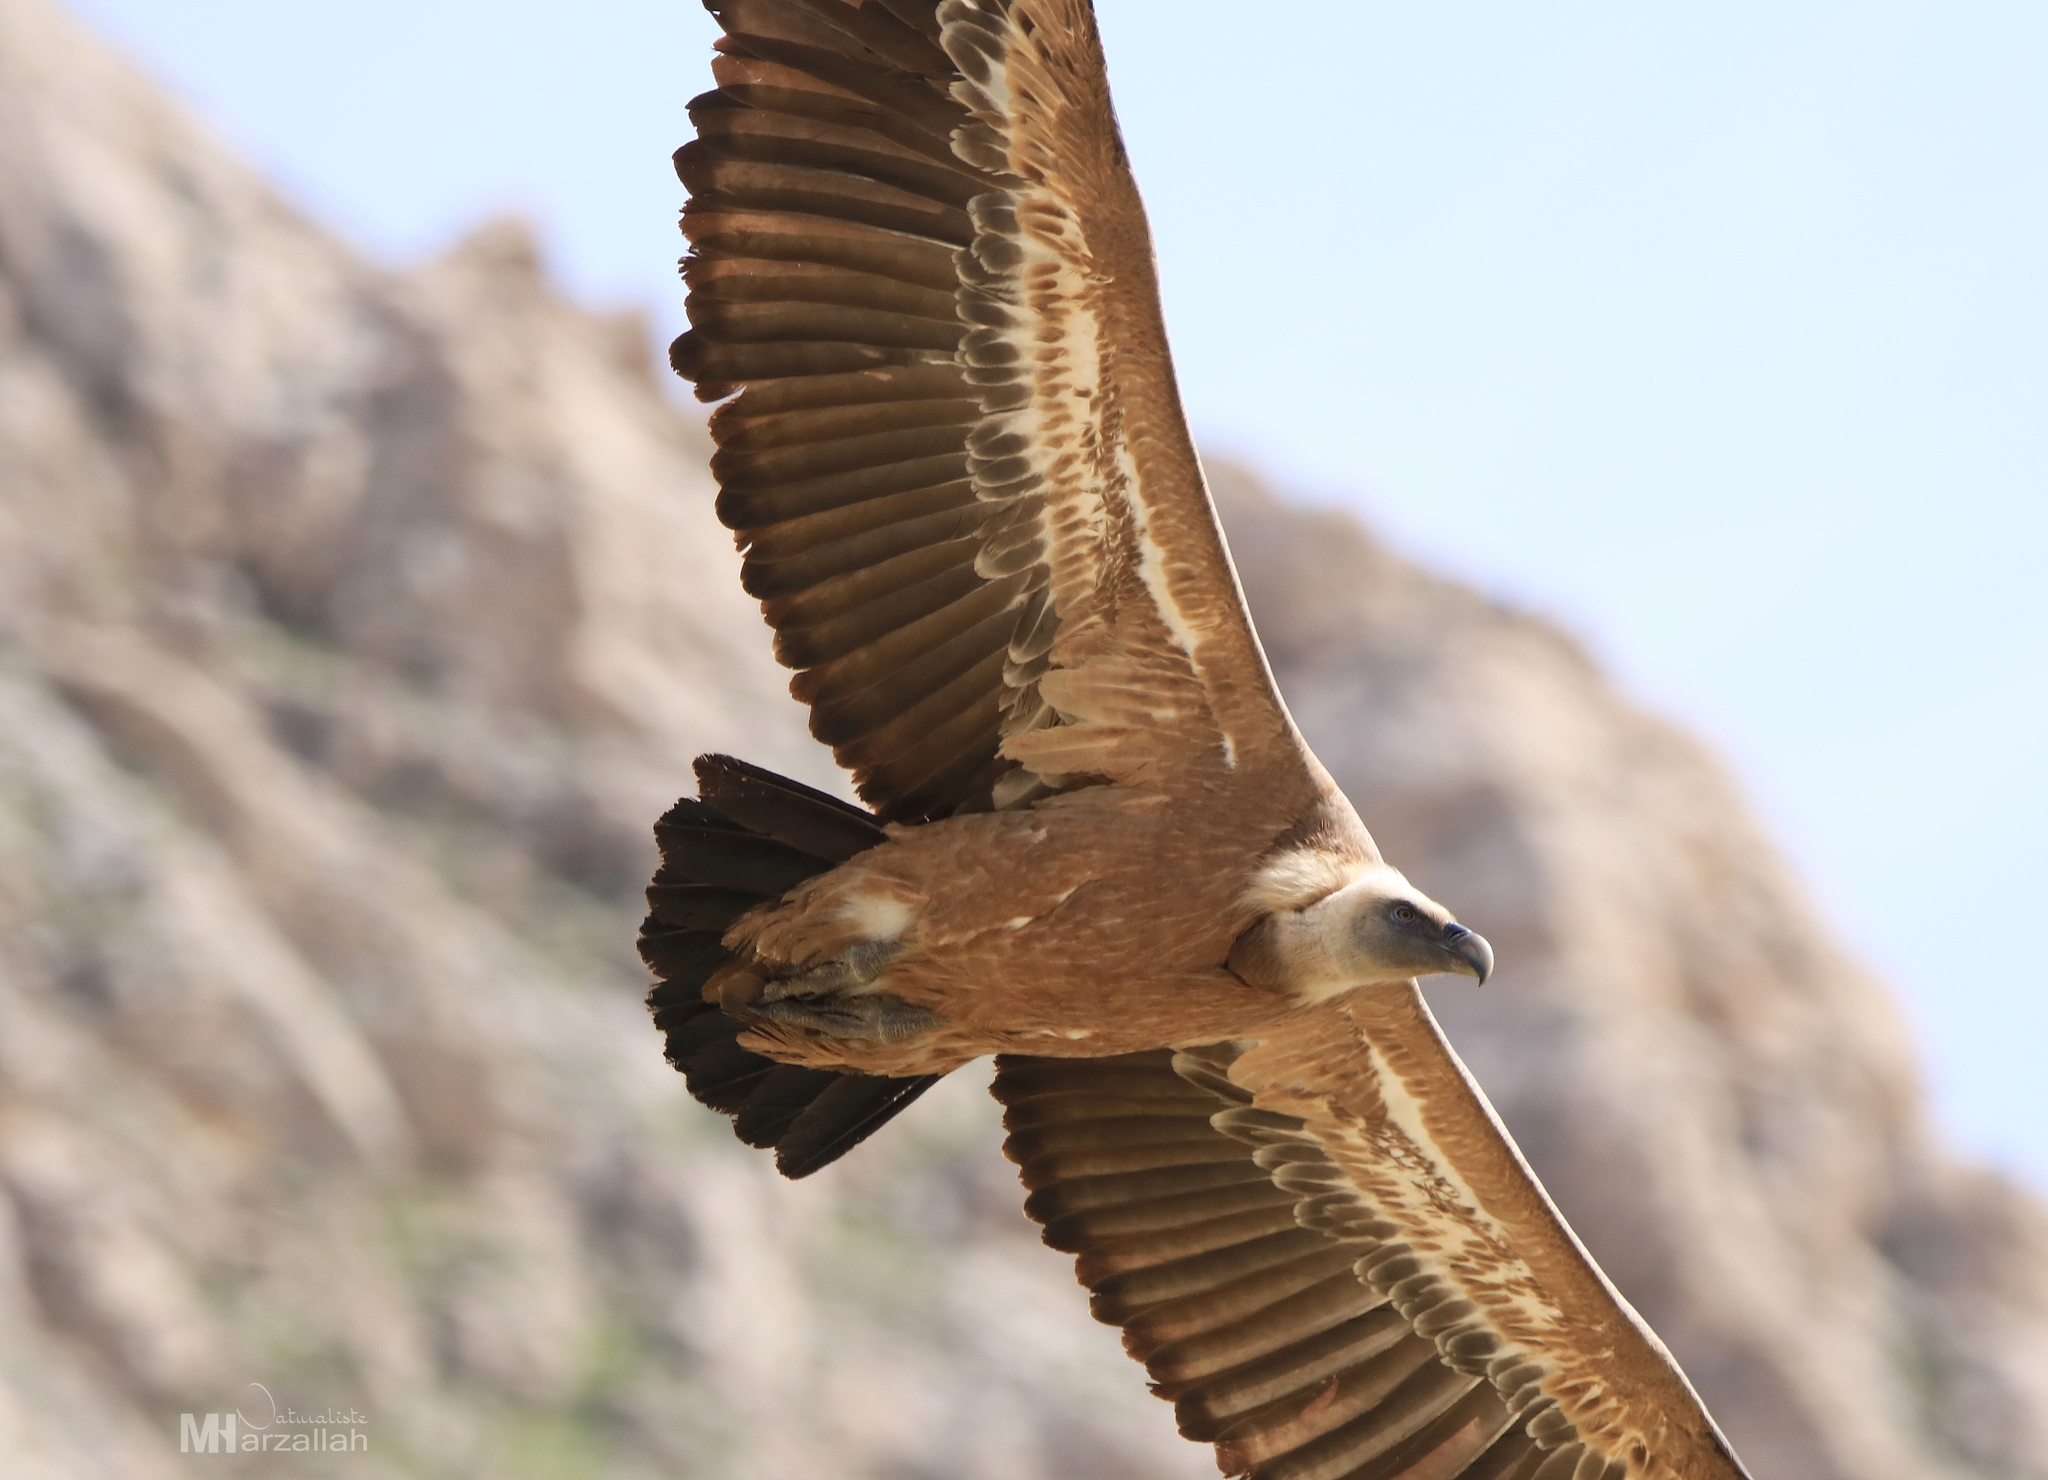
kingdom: Animalia
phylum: Chordata
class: Aves
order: Accipitriformes
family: Accipitridae
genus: Gyps
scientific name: Gyps fulvus
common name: Griffon vulture
